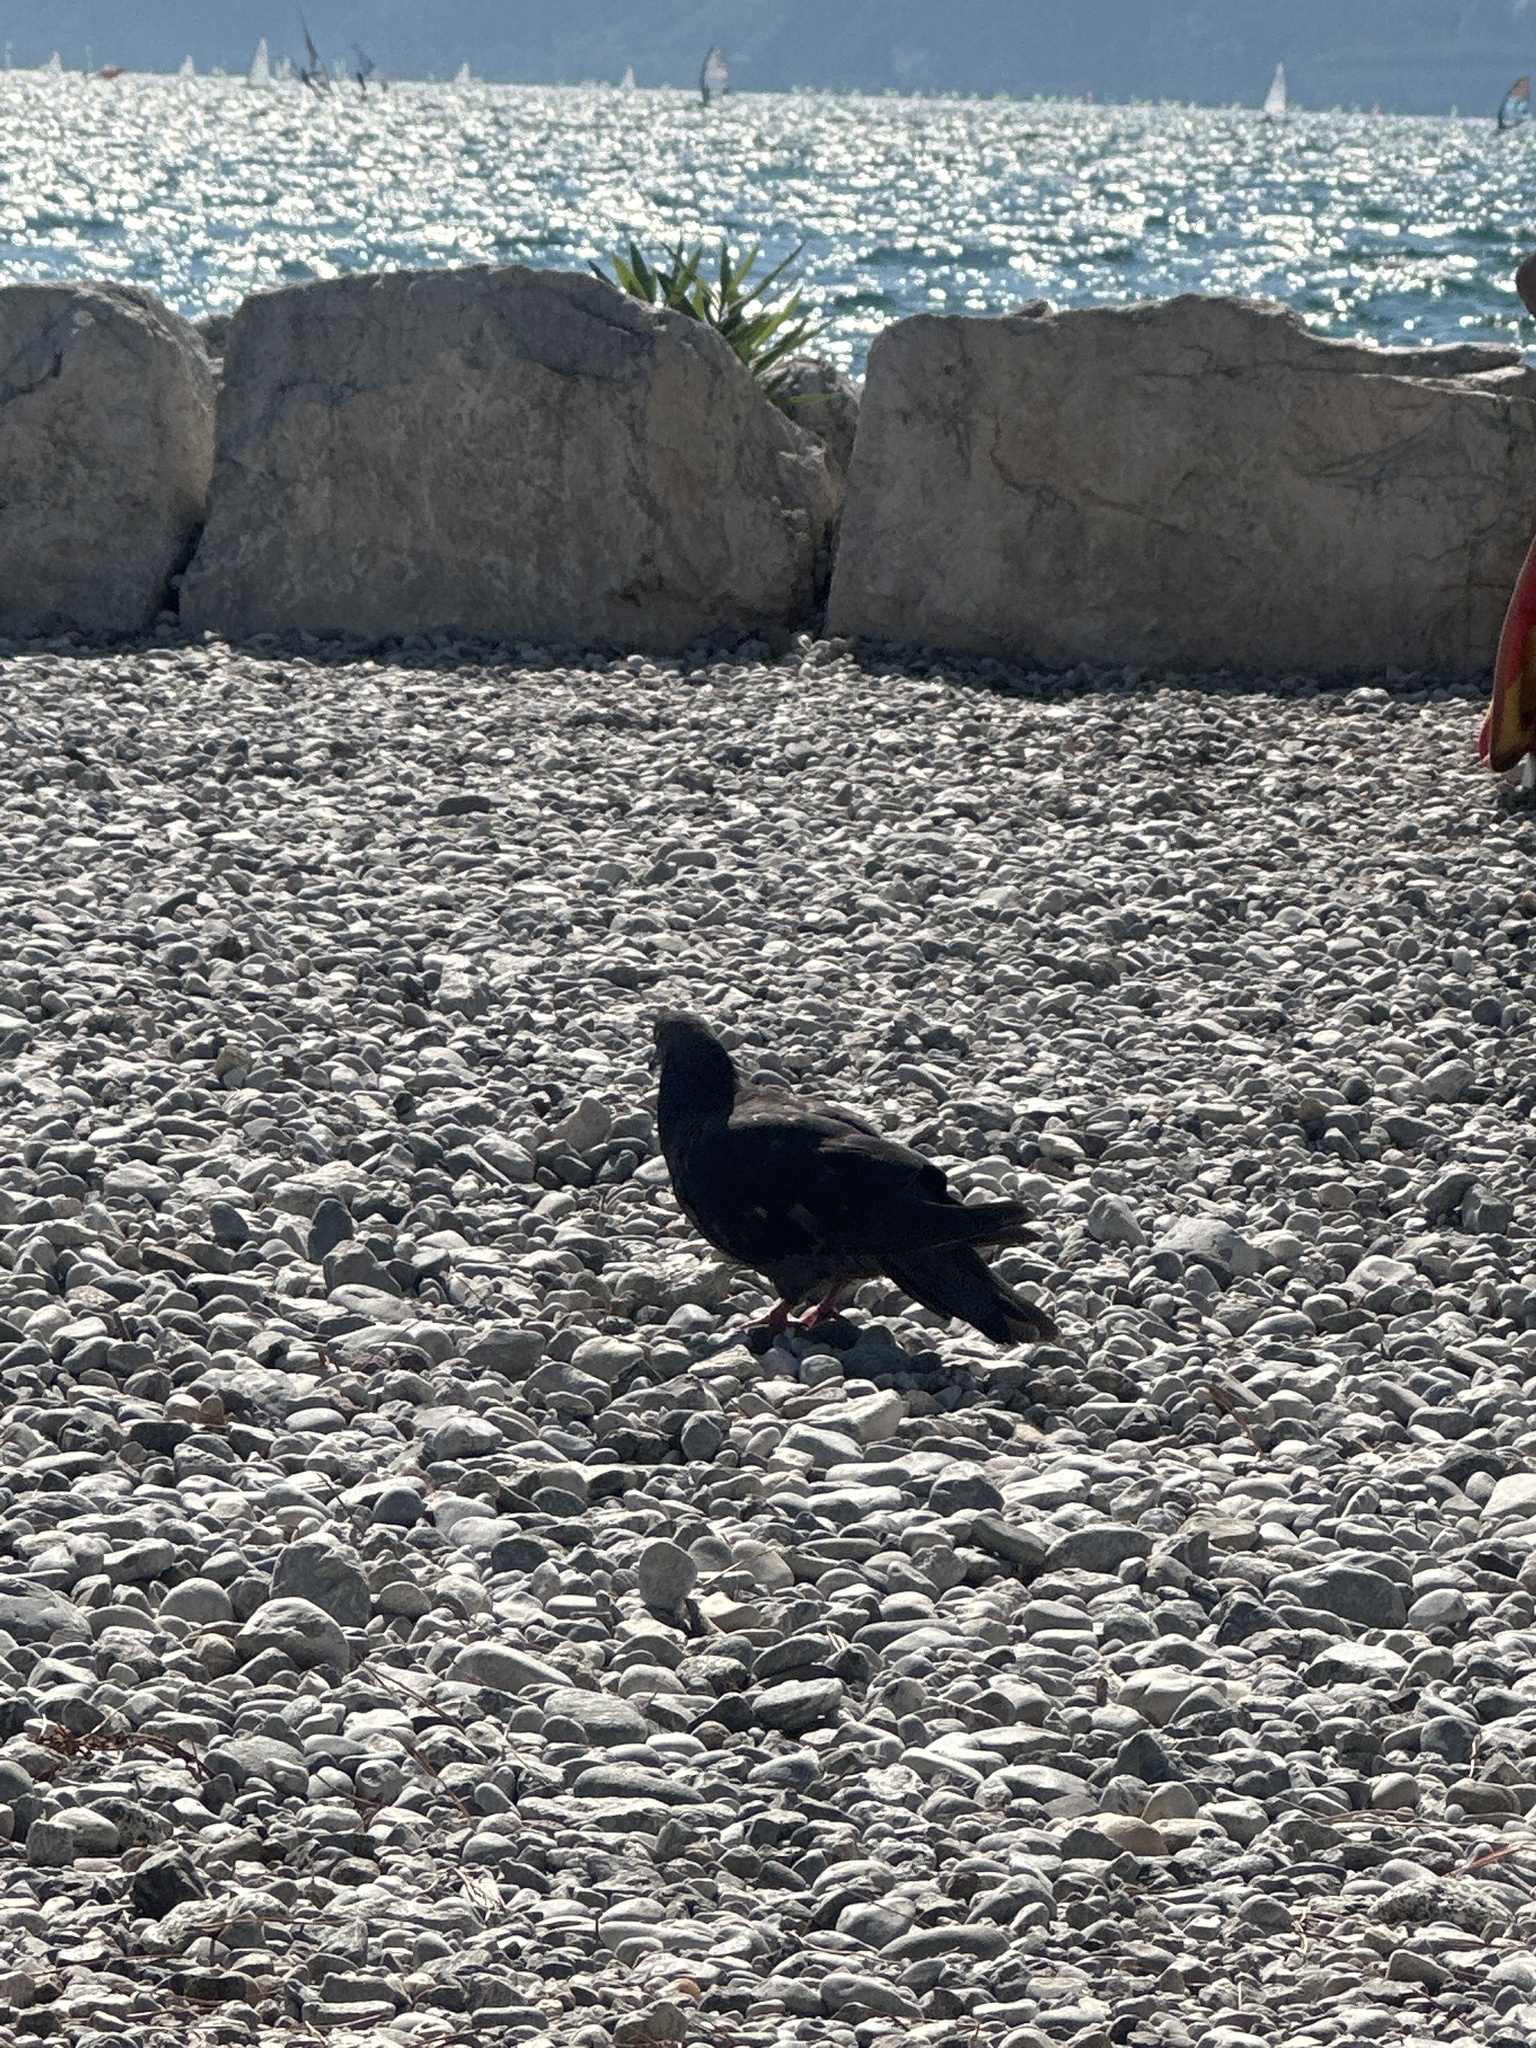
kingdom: Animalia
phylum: Chordata
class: Aves
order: Columbiformes
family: Columbidae
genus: Columba
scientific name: Columba livia
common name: Rock pigeon
